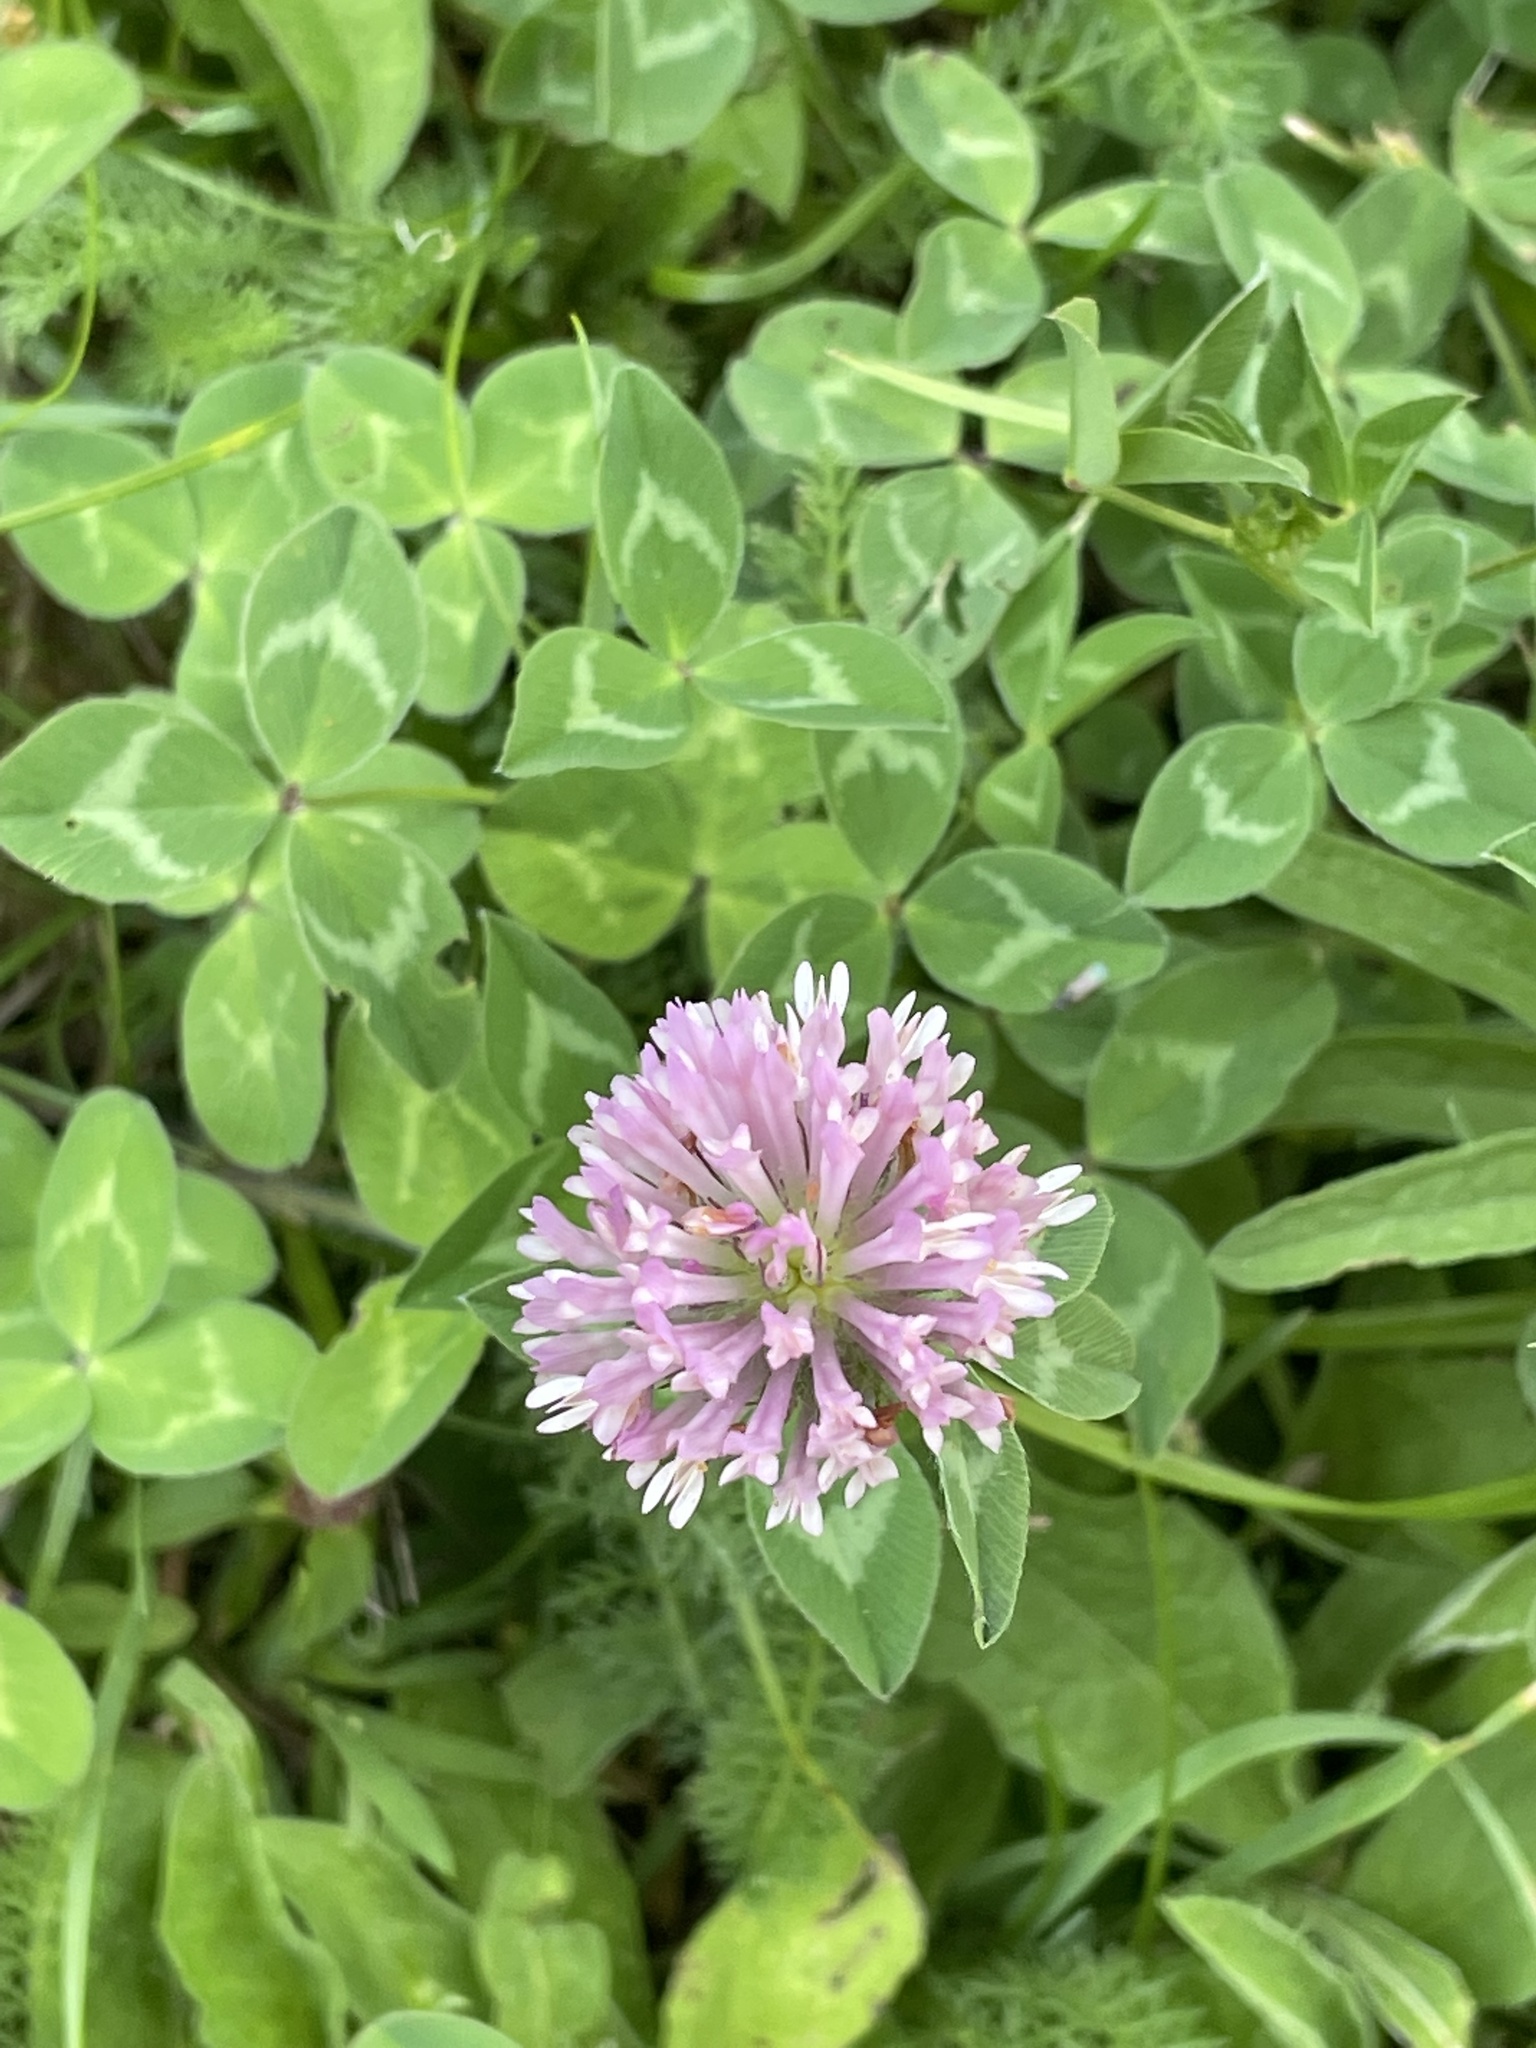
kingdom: Plantae
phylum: Tracheophyta
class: Magnoliopsida
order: Fabales
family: Fabaceae
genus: Trifolium
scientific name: Trifolium pratense
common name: Red clover
